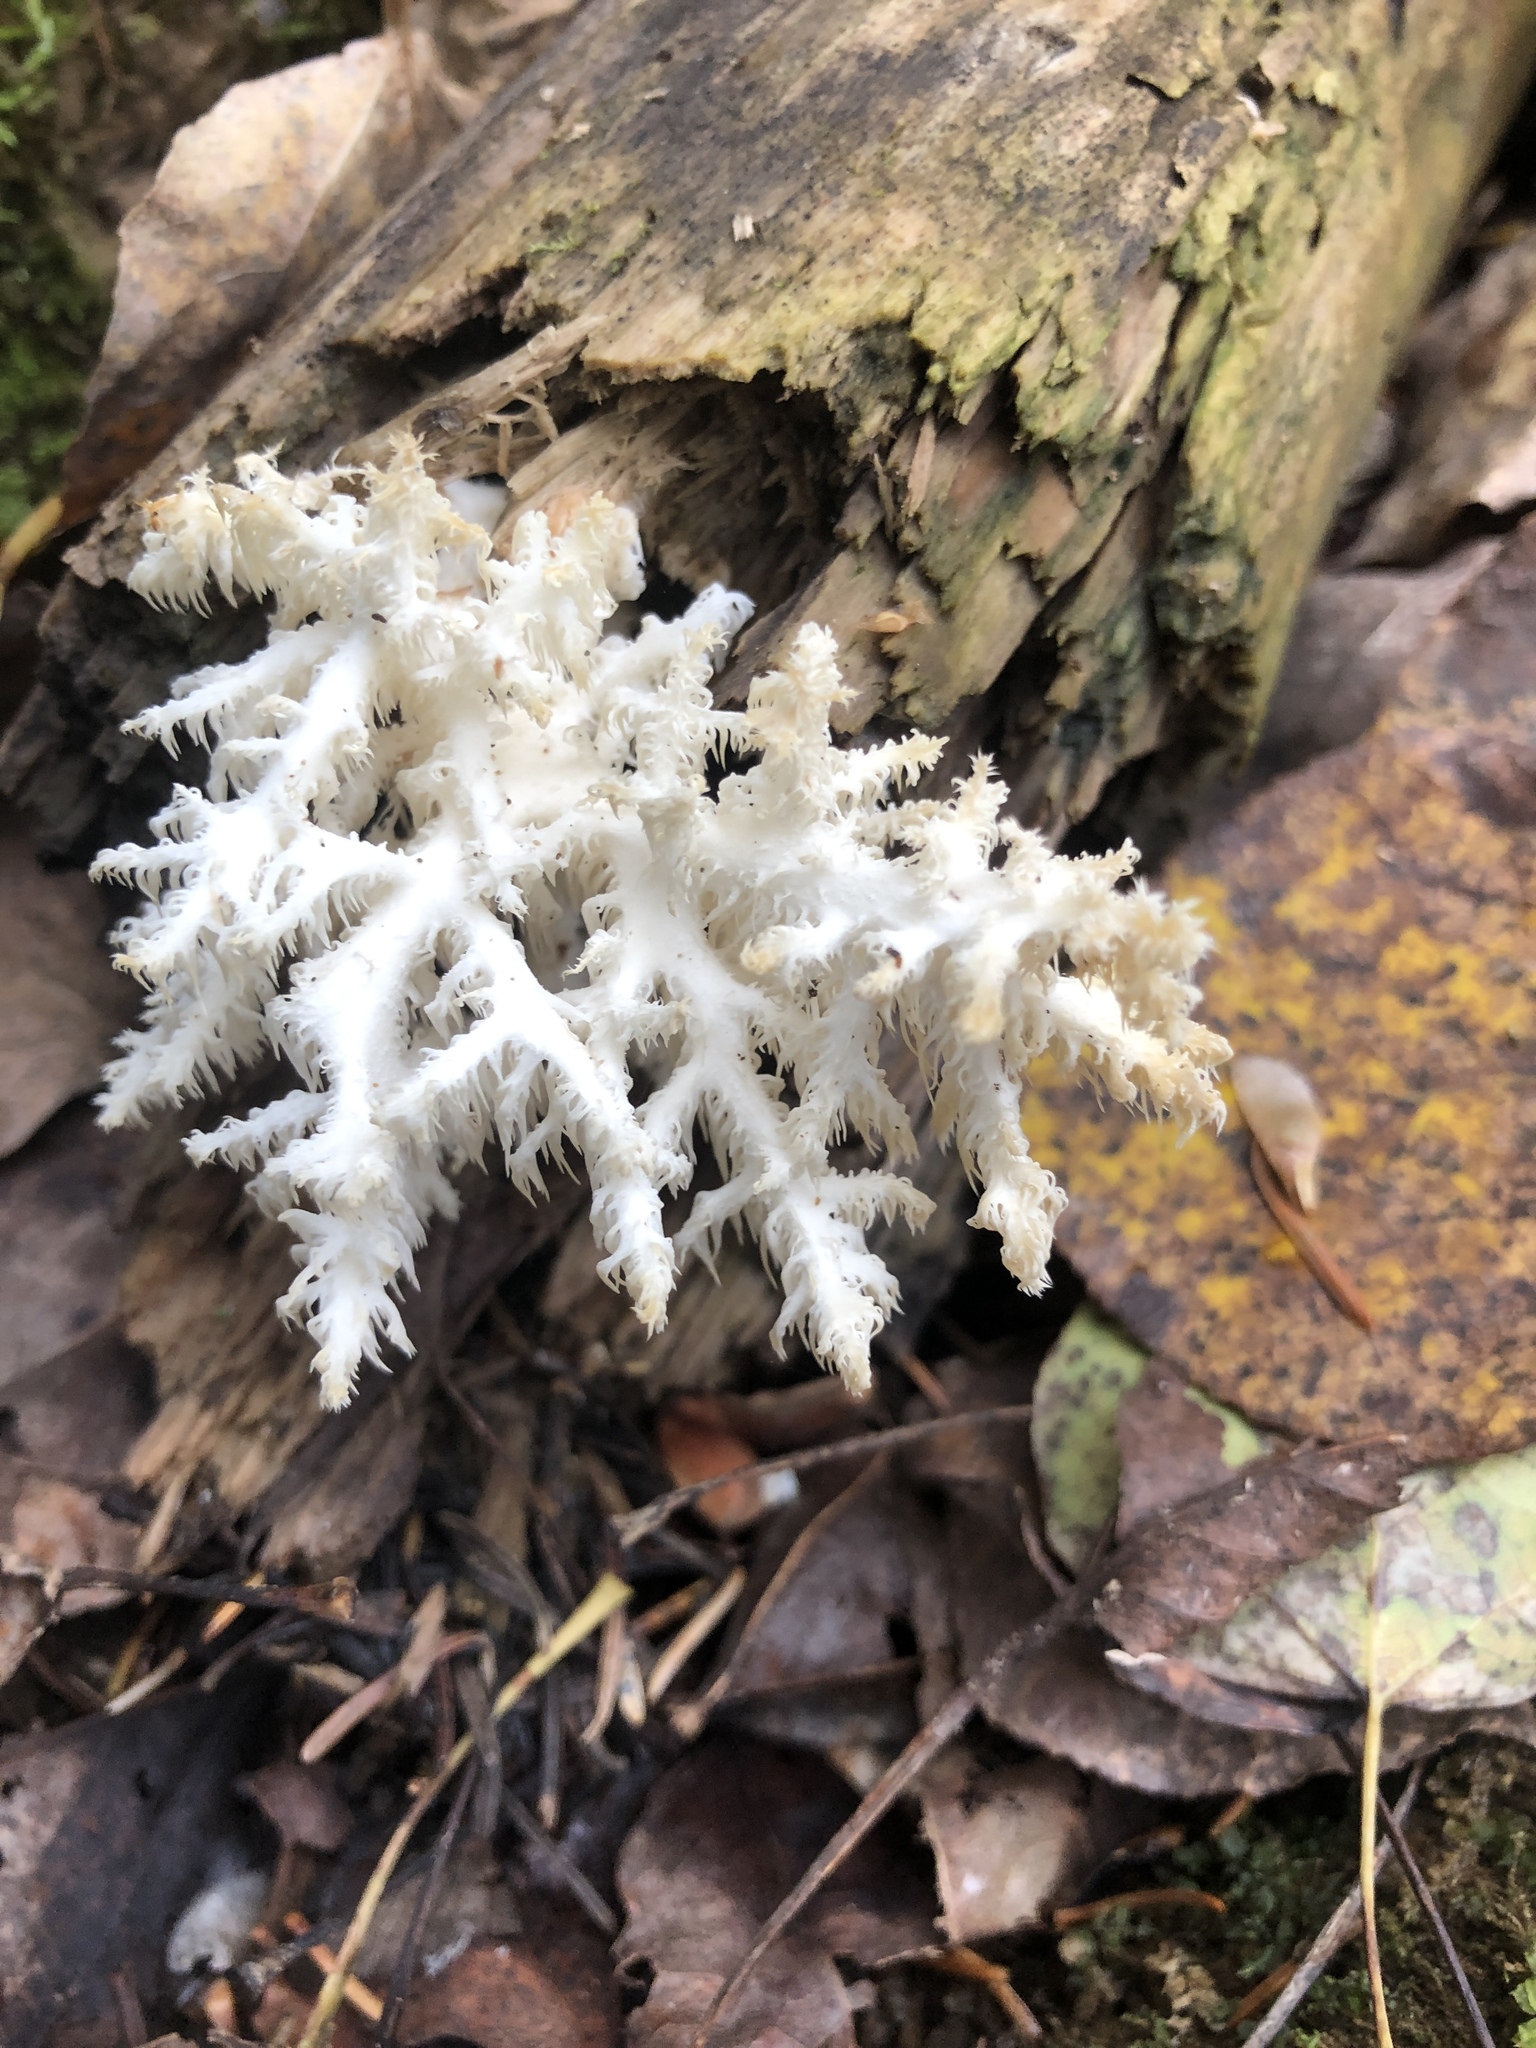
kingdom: Fungi
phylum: Basidiomycota
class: Agaricomycetes
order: Russulales
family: Hericiaceae
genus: Hericium
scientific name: Hericium coralloides
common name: Coral tooth
